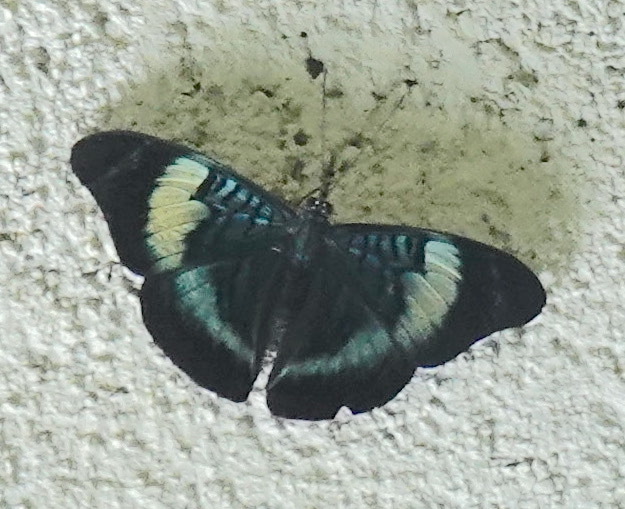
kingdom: Animalia
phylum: Arthropoda
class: Insecta
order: Lepidoptera
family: Nymphalidae
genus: Panacea
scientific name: Panacea prola
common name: Red flasher
